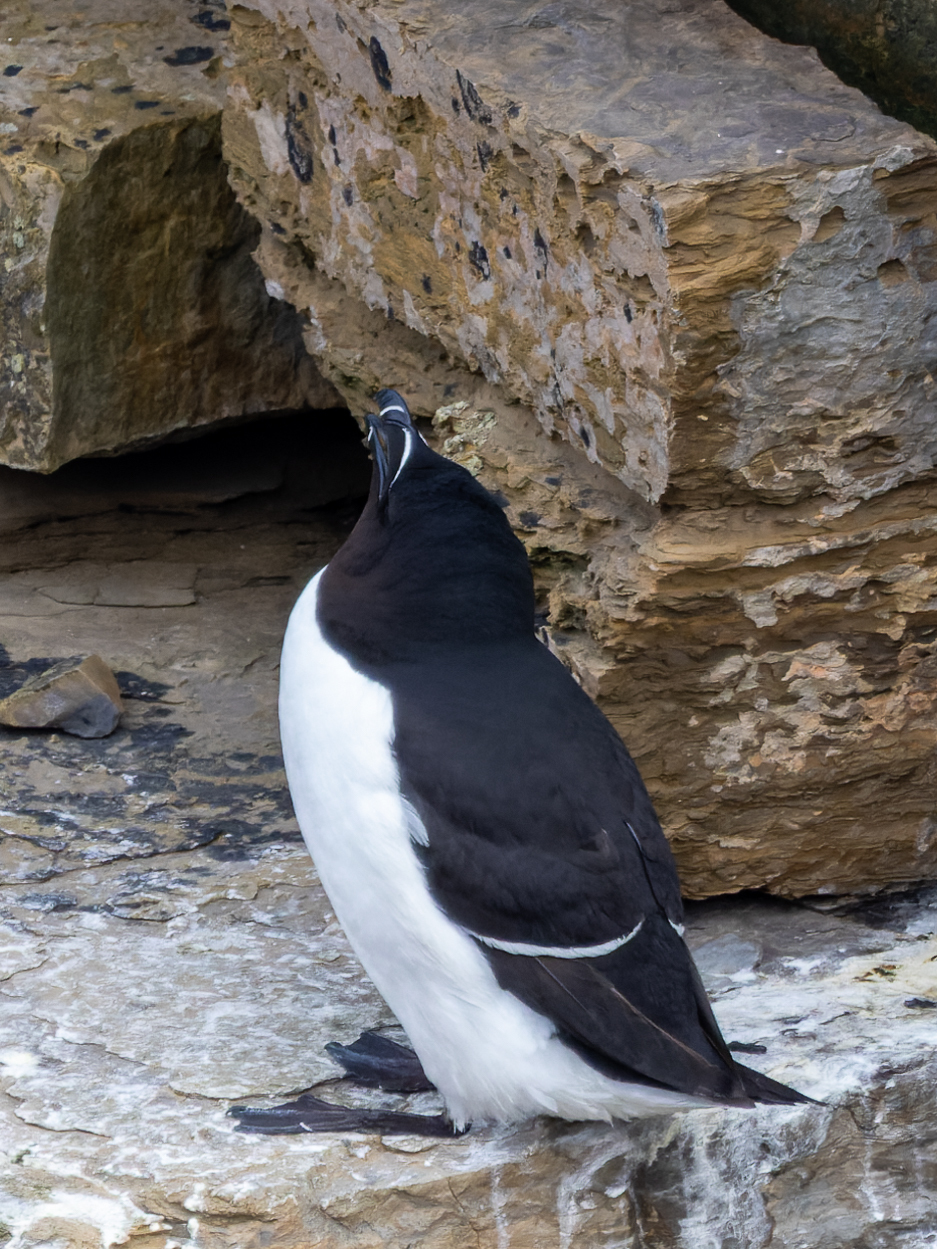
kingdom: Animalia
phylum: Chordata
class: Aves
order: Charadriiformes
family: Alcidae
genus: Alca
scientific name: Alca torda
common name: Razorbill
